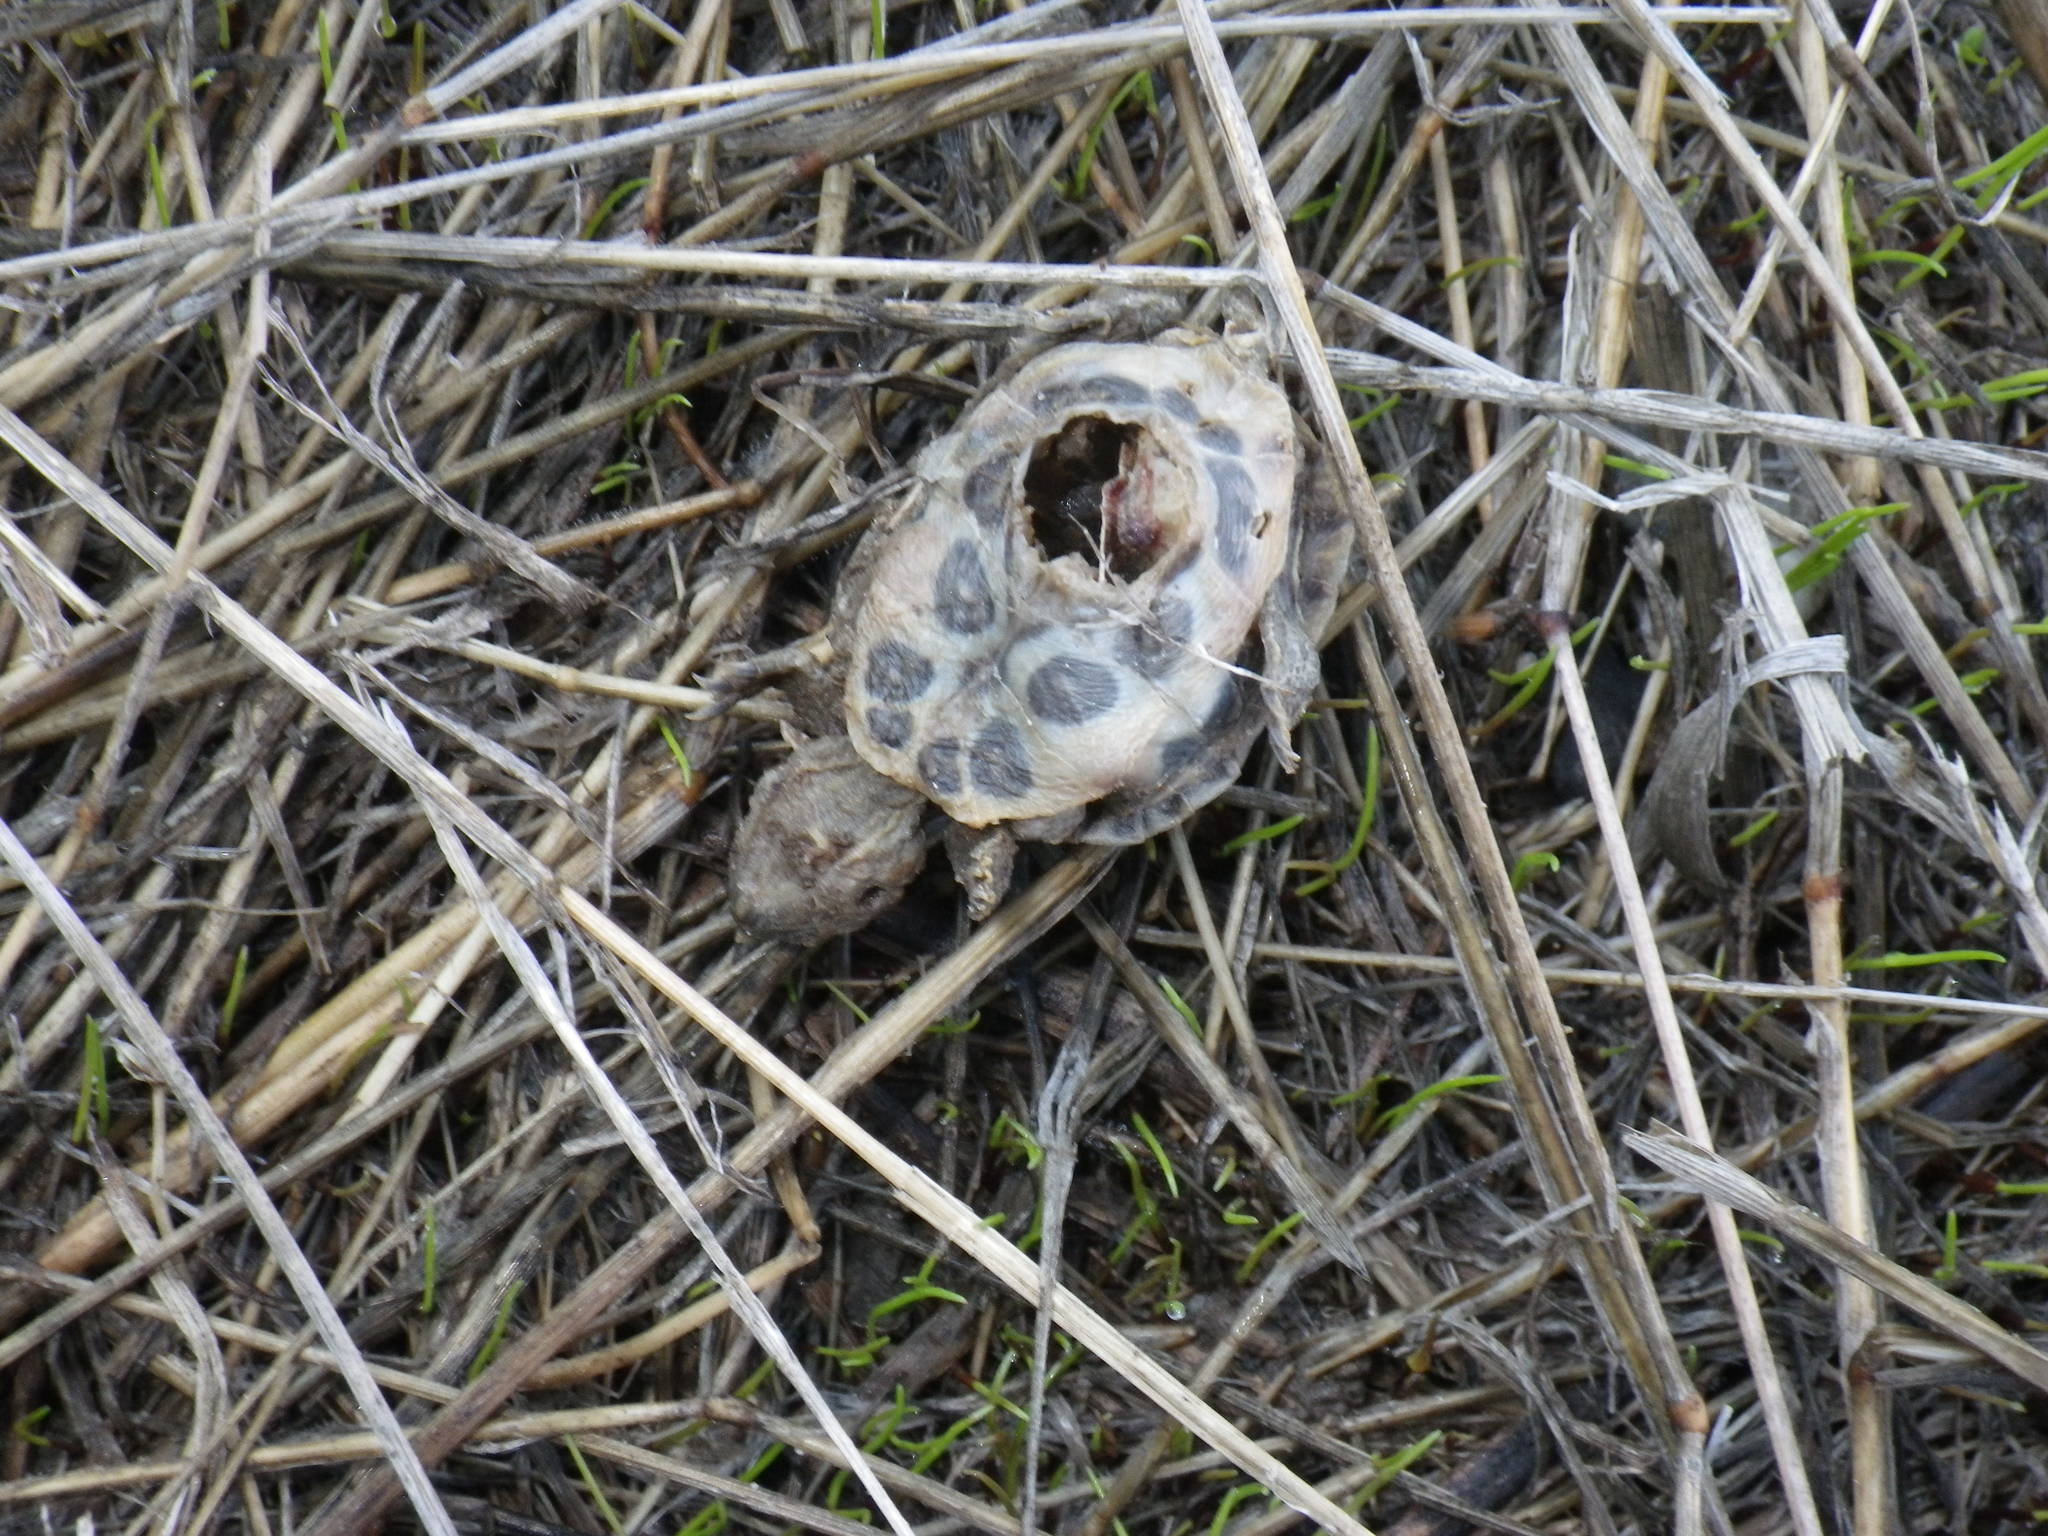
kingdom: Animalia
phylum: Chordata
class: Testudines
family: Emydidae
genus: Trachemys
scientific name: Trachemys scripta
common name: Slider
